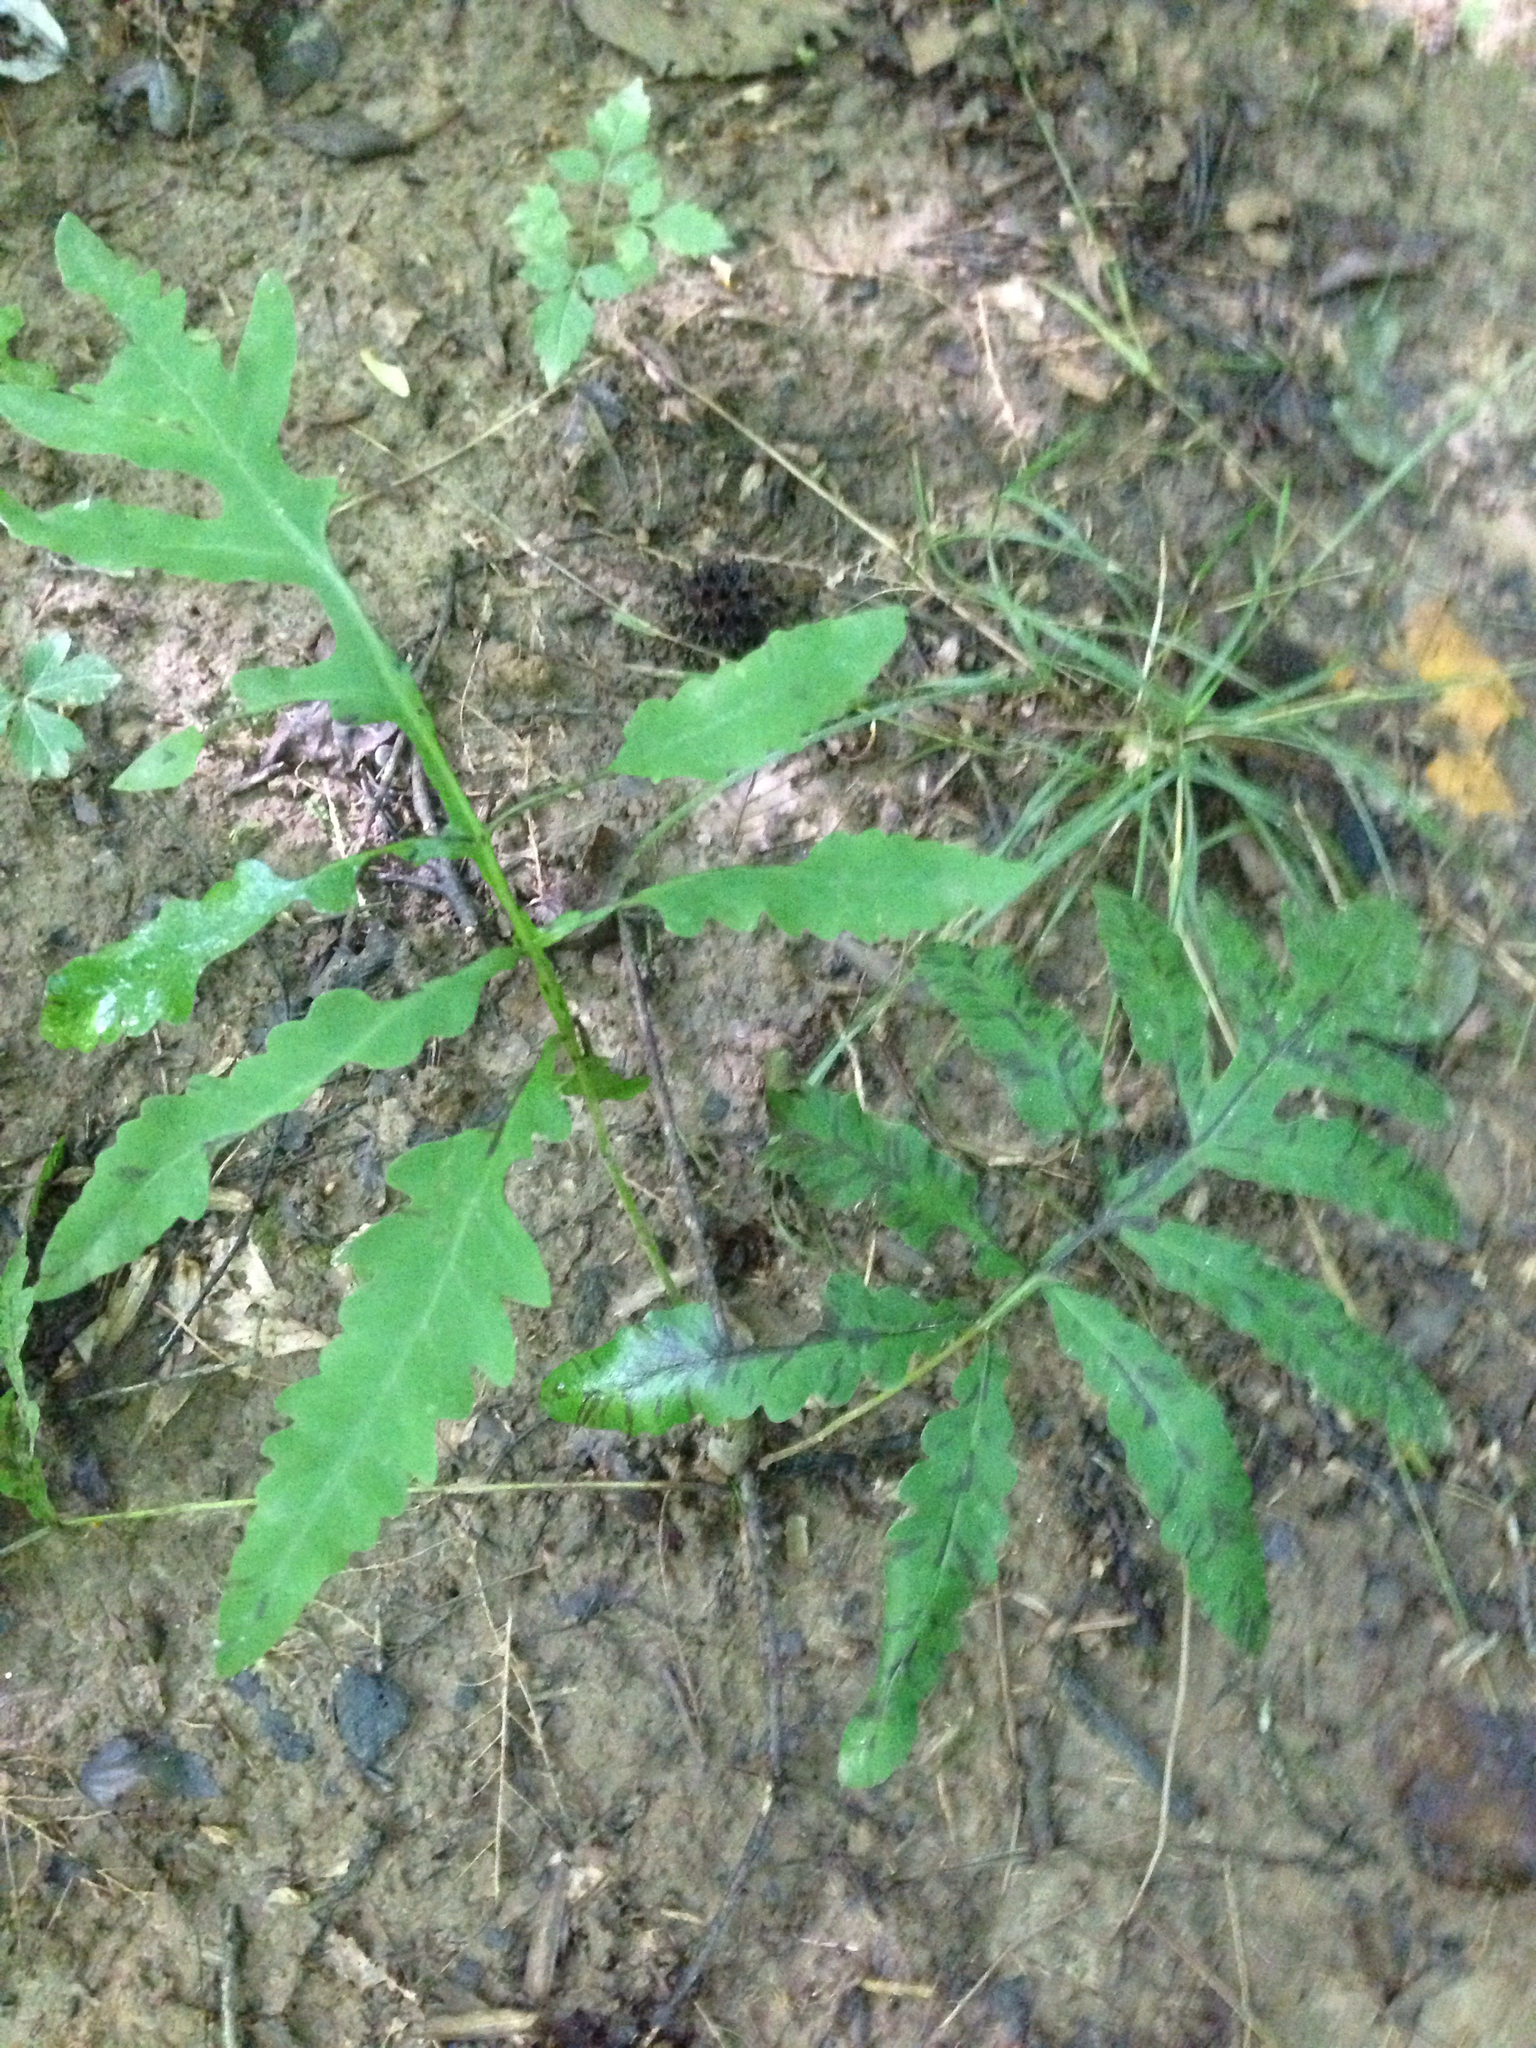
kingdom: Plantae
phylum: Tracheophyta
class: Polypodiopsida
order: Polypodiales
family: Onocleaceae
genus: Onoclea
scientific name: Onoclea sensibilis
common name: Sensitive fern
